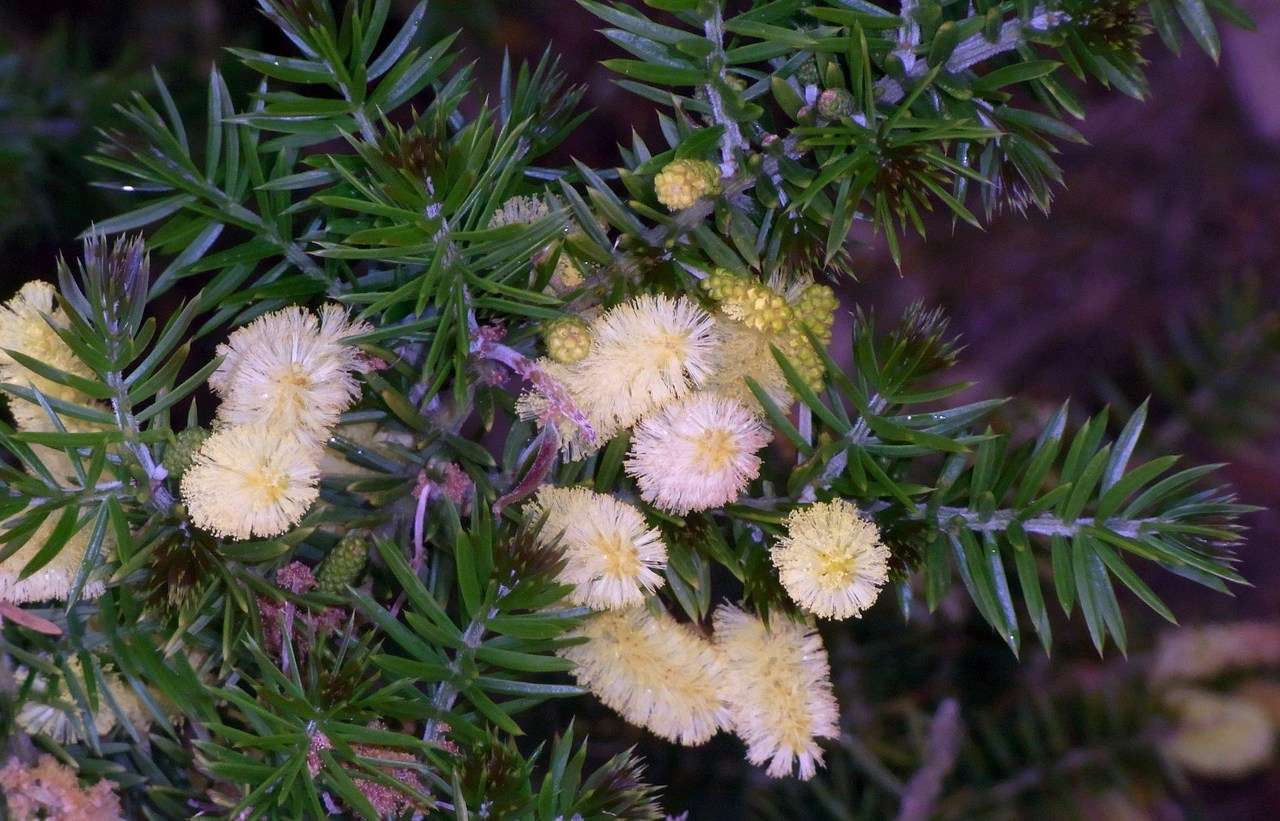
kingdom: Plantae
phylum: Tracheophyta
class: Magnoliopsida
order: Fabales
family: Fabaceae
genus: Acacia
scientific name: Acacia verticillata
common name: Prickly moses
